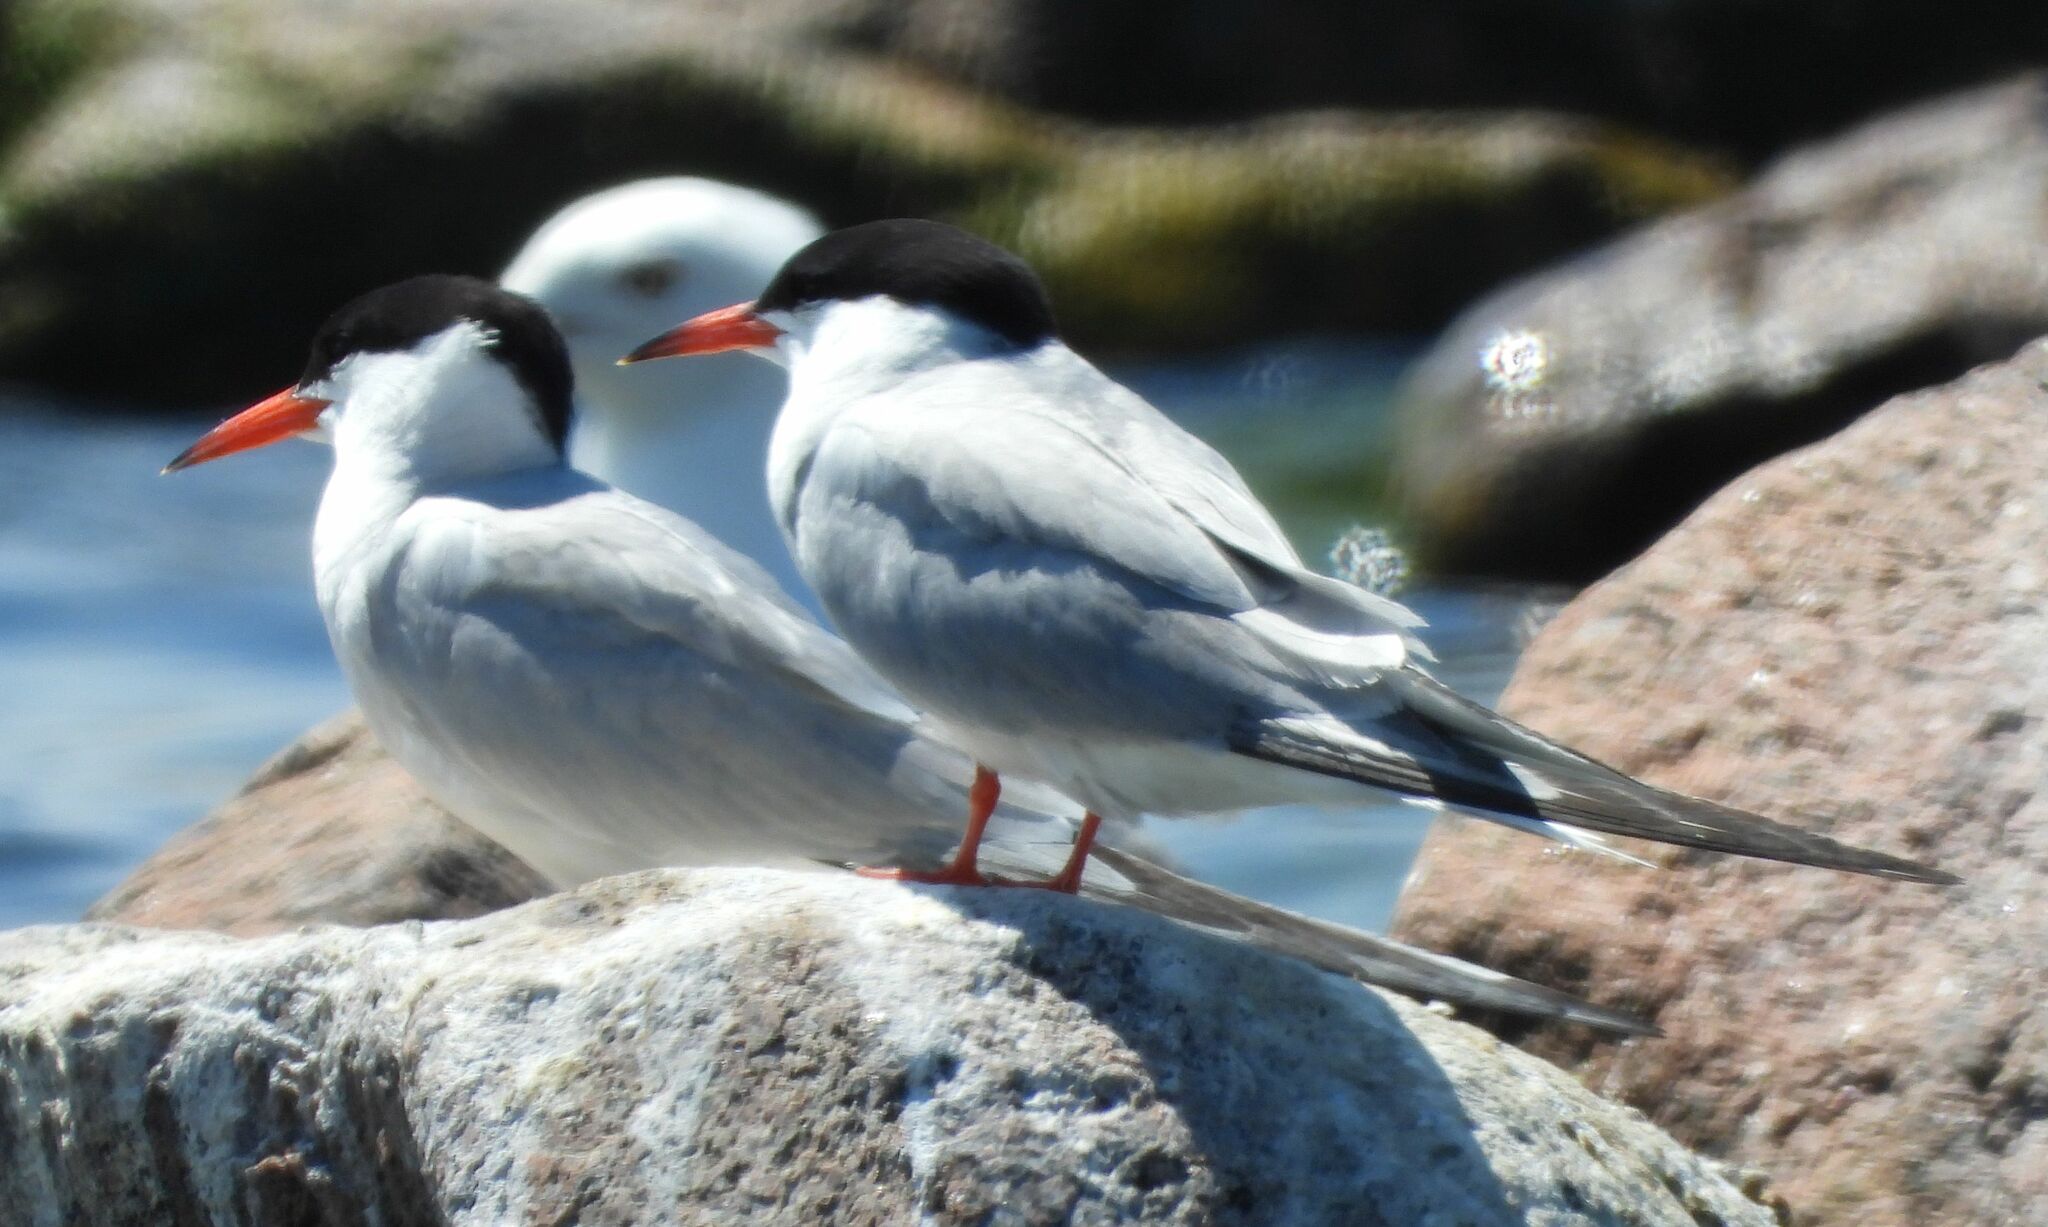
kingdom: Animalia
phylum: Chordata
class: Aves
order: Charadriiformes
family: Laridae
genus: Sterna
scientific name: Sterna hirundo
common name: Common tern
